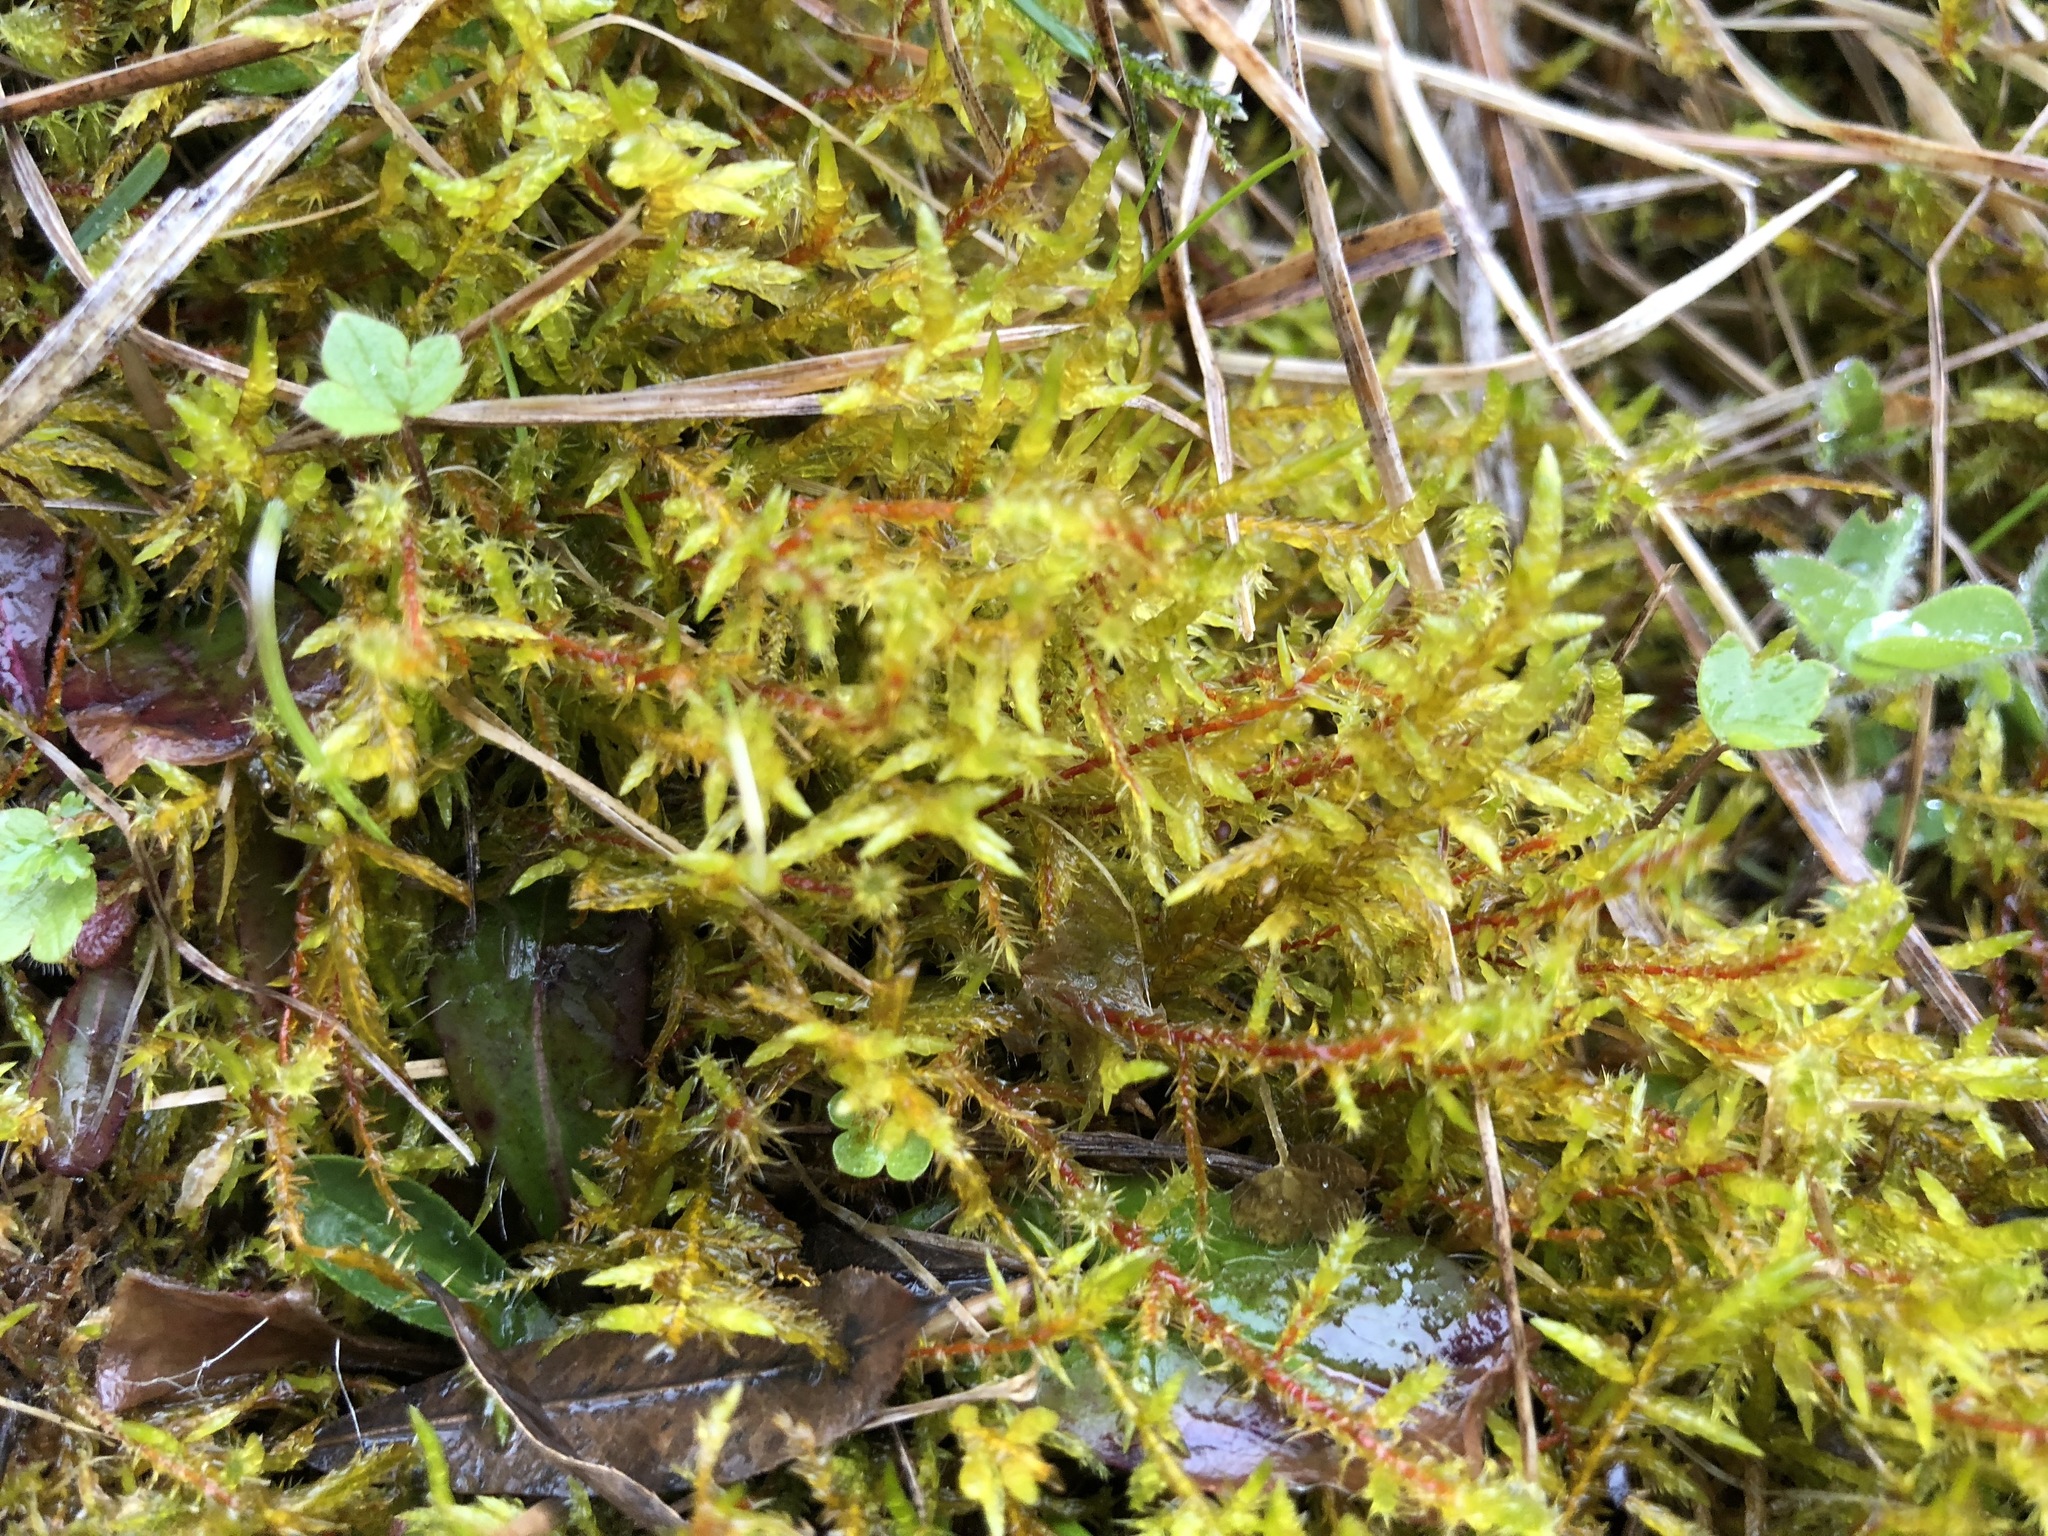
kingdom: Plantae
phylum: Bryophyta
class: Bryopsida
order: Hypnales
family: Pylaisiaceae
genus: Calliergonella
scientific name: Calliergonella cuspidata
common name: Common large wetland moss
